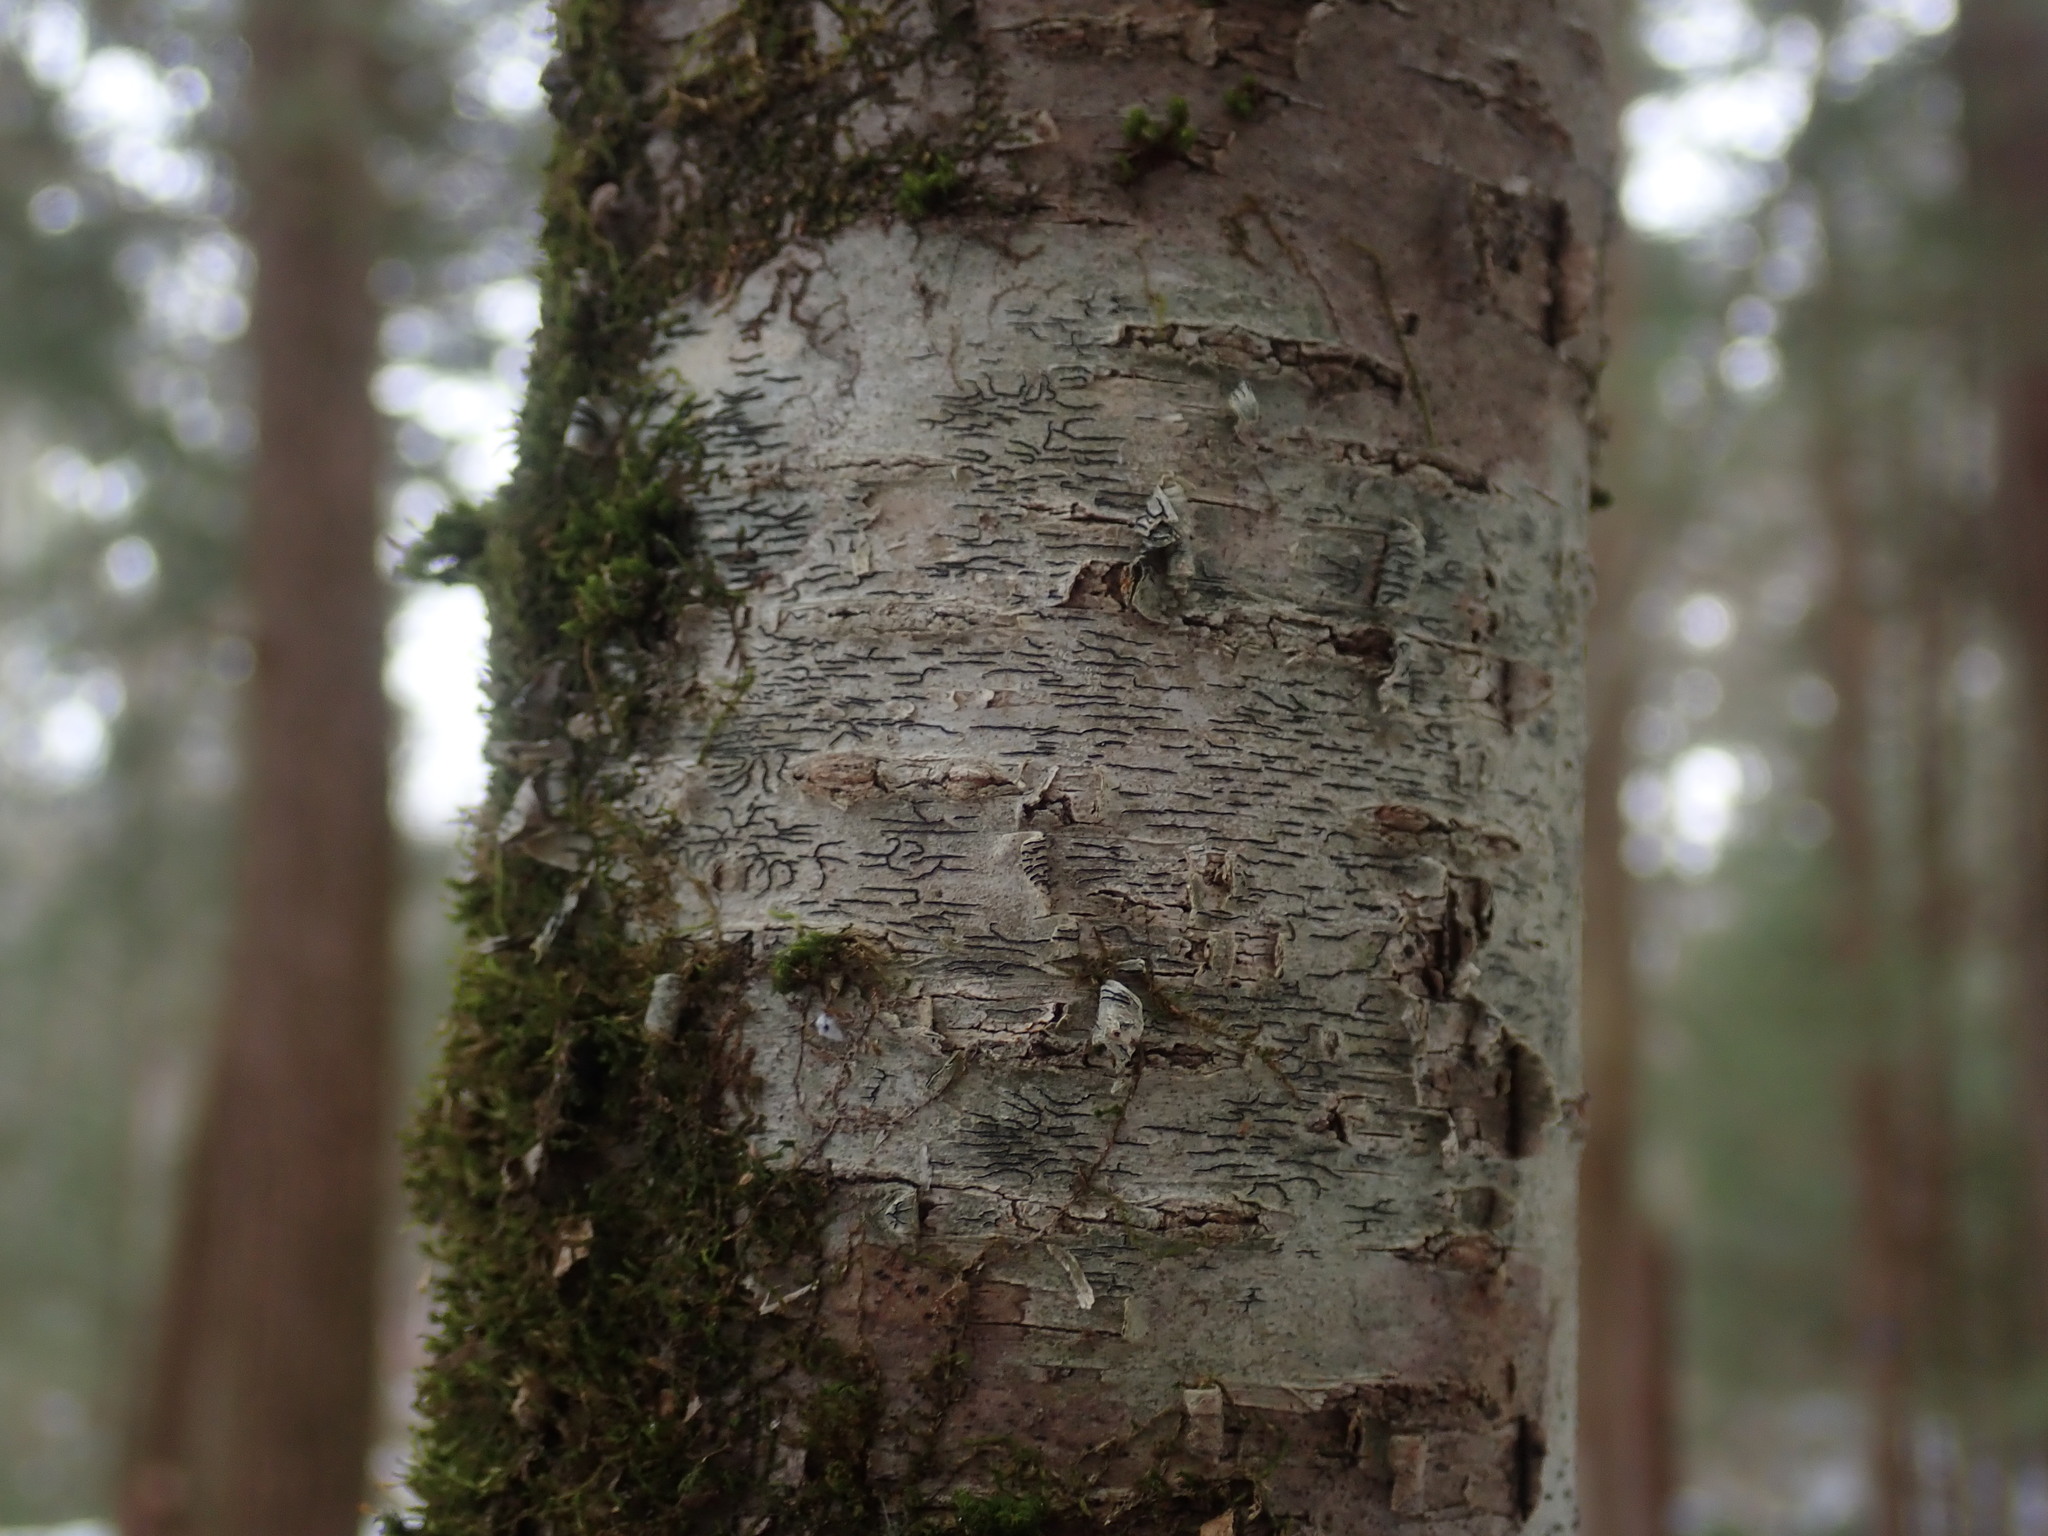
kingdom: Fungi
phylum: Ascomycota
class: Lecanoromycetes
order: Ostropales
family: Graphidaceae
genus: Graphis
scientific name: Graphis scripta
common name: Script lichen
